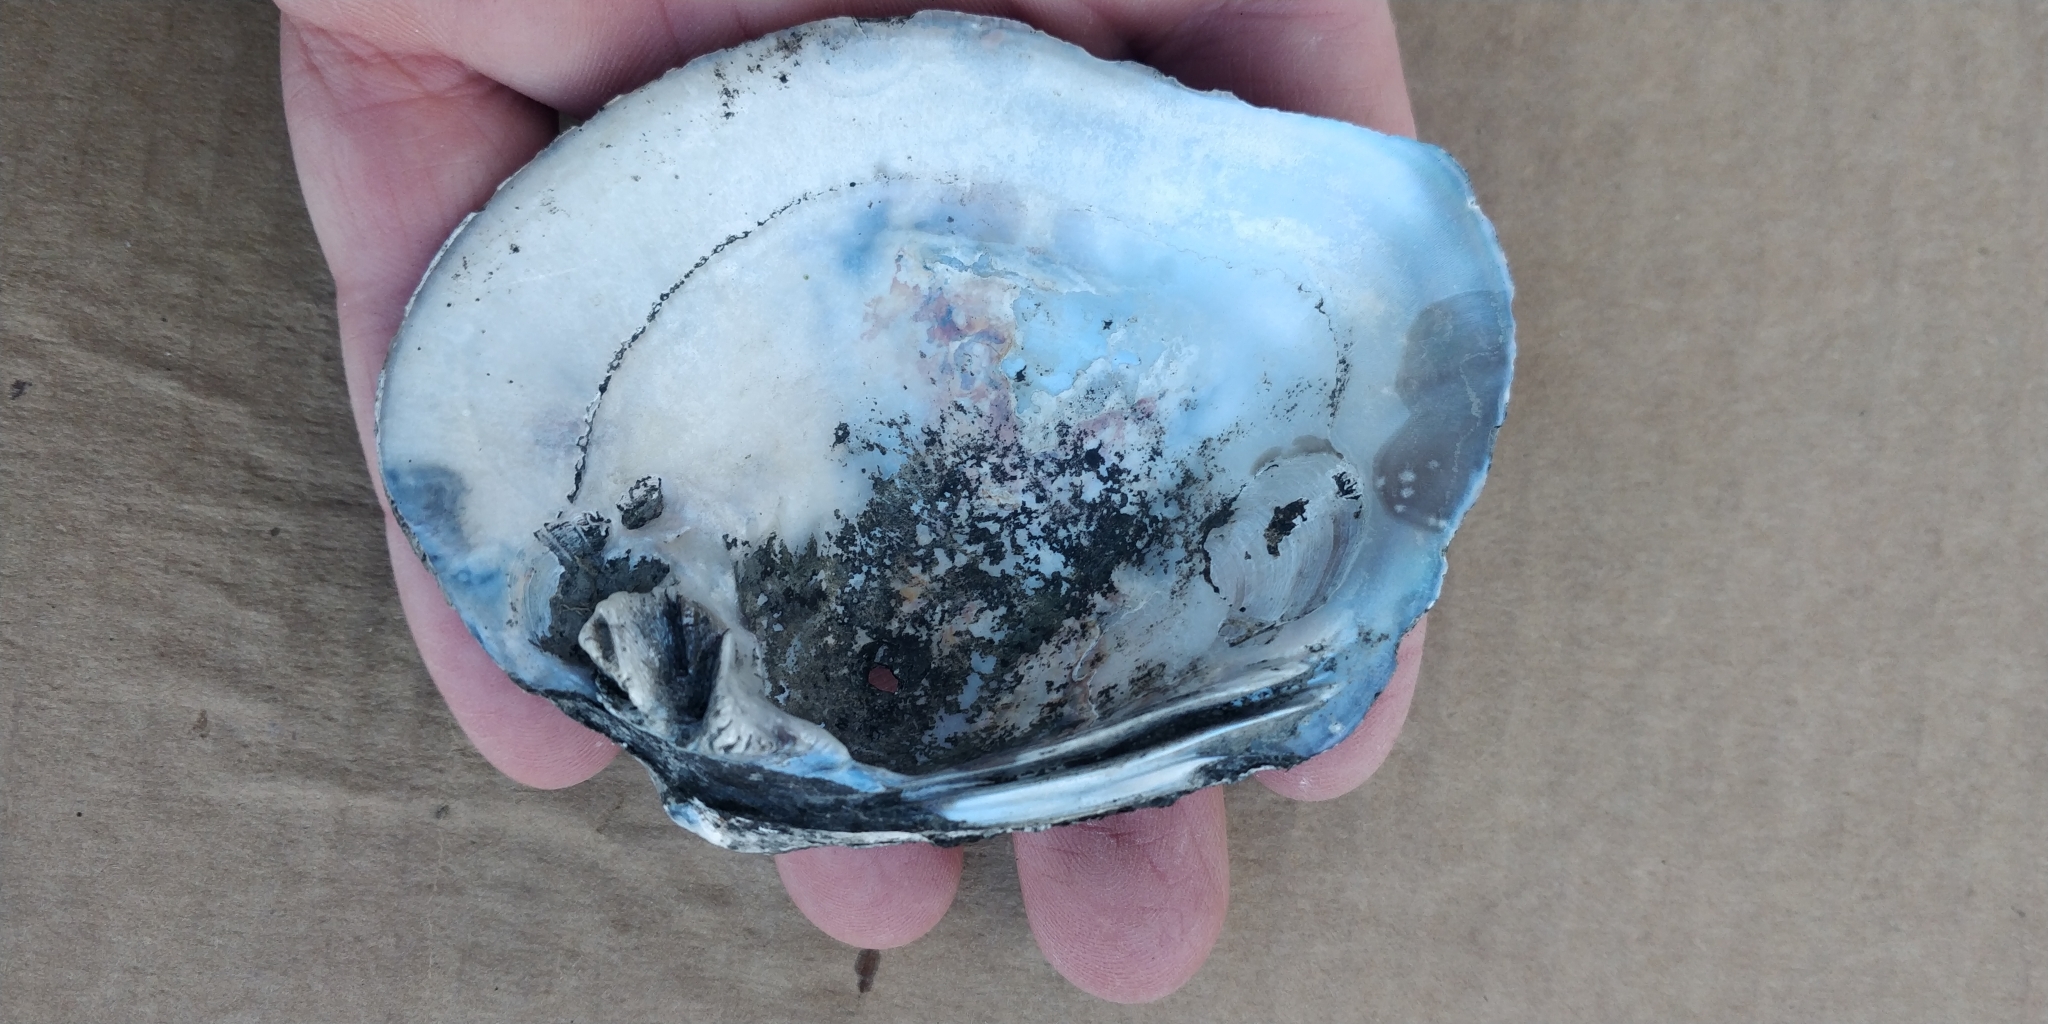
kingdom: Animalia
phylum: Mollusca
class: Bivalvia
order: Unionida
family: Unionidae
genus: Quadrula
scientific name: Quadrula quadrula
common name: Mapleleaf
